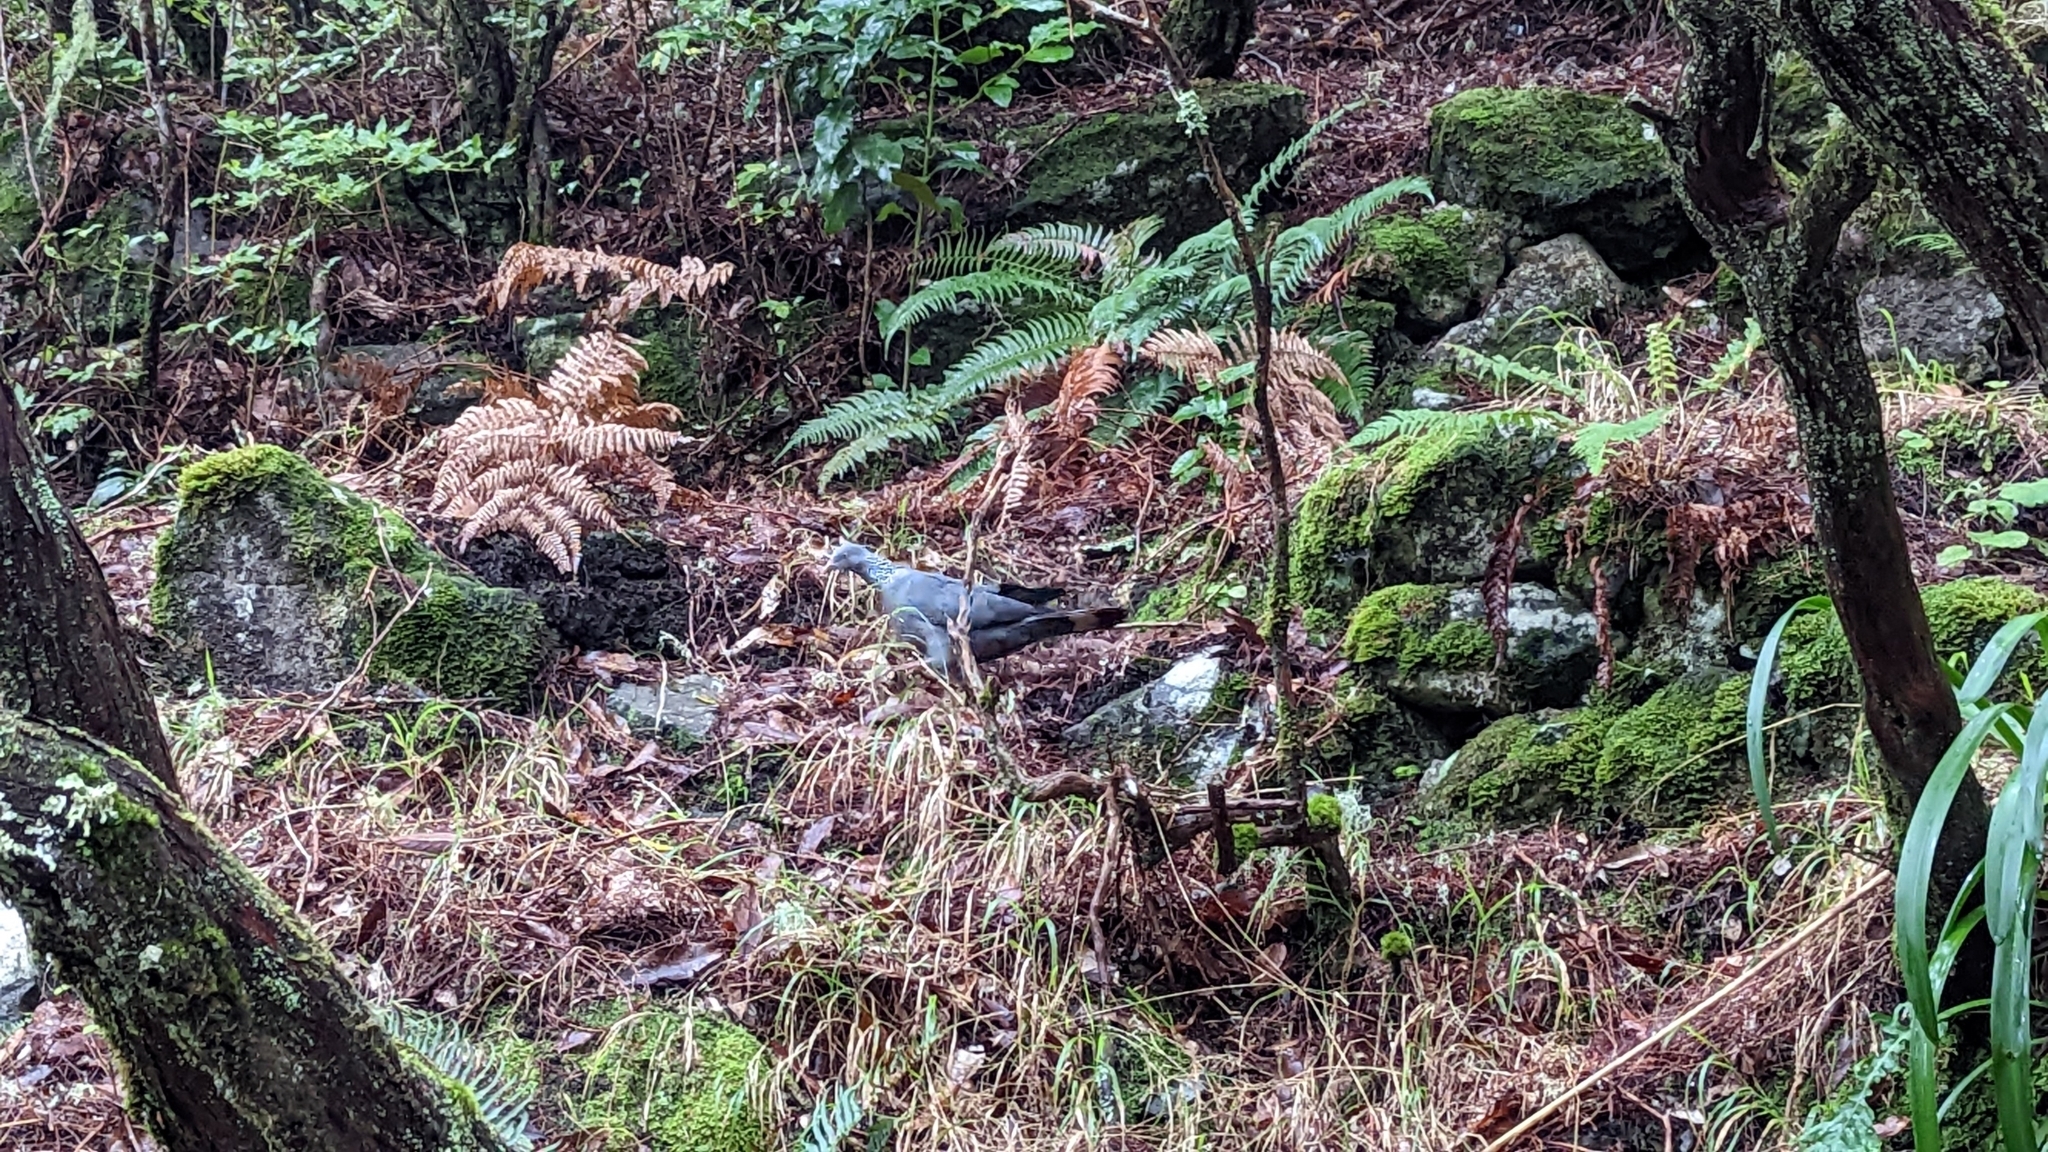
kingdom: Animalia
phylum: Chordata
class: Aves
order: Columbiformes
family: Columbidae
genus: Columba
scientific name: Columba trocaz
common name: Trocaz pigeon
